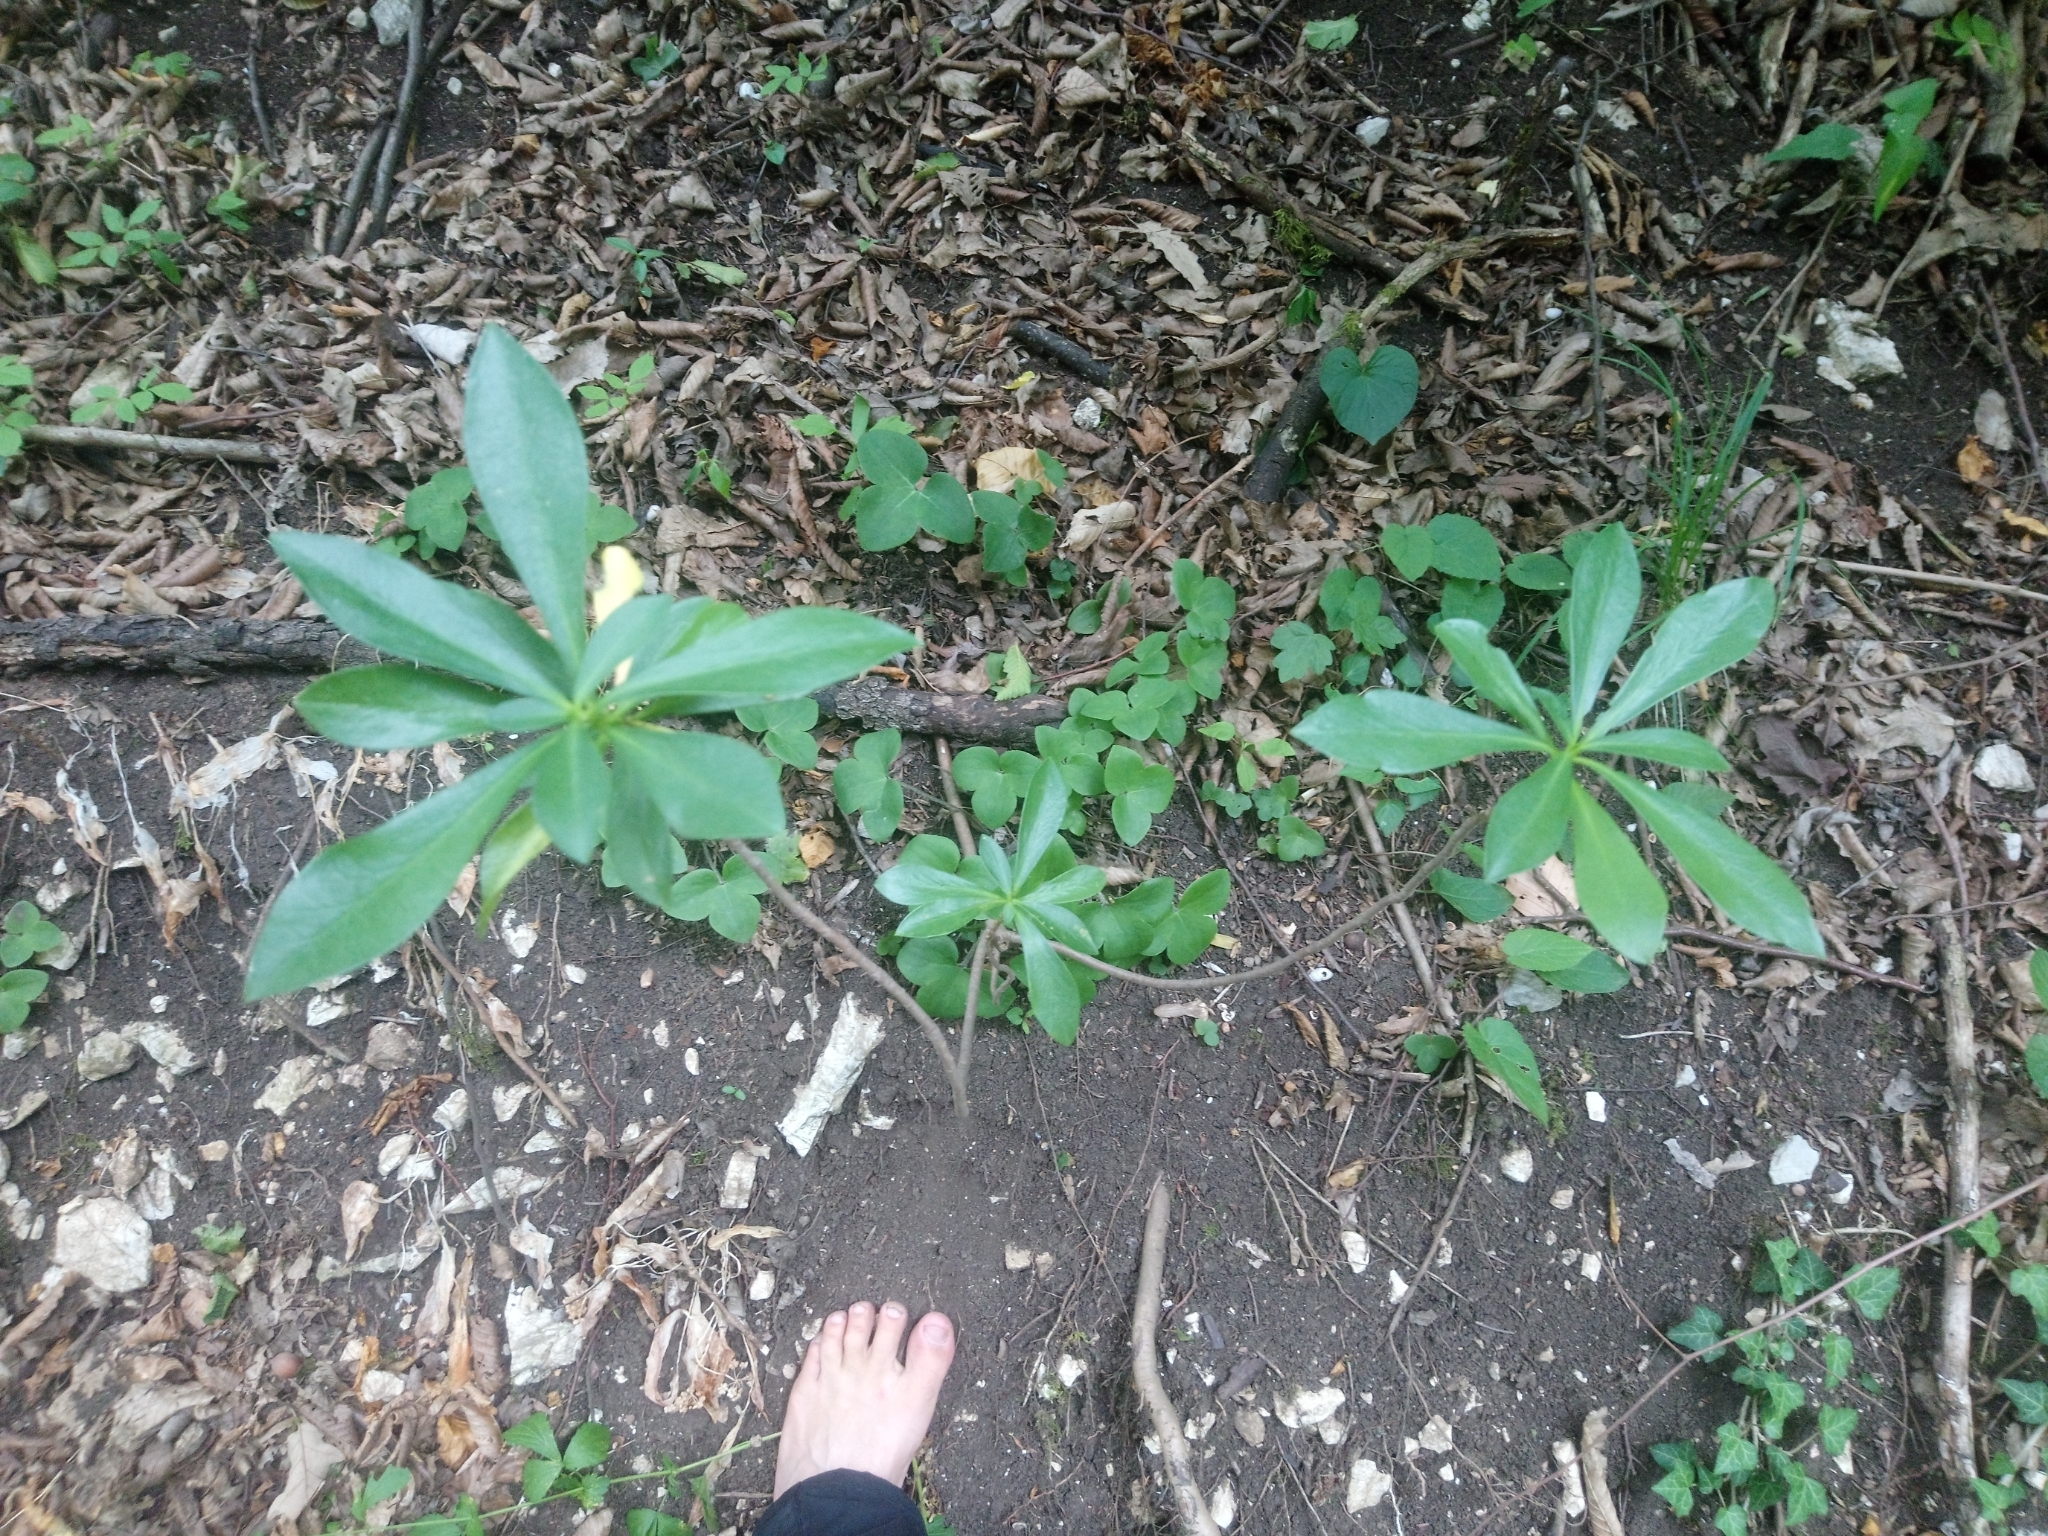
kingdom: Plantae
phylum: Tracheophyta
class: Magnoliopsida
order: Malvales
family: Thymelaeaceae
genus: Daphne
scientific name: Daphne laureola
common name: Spurge-laurel
